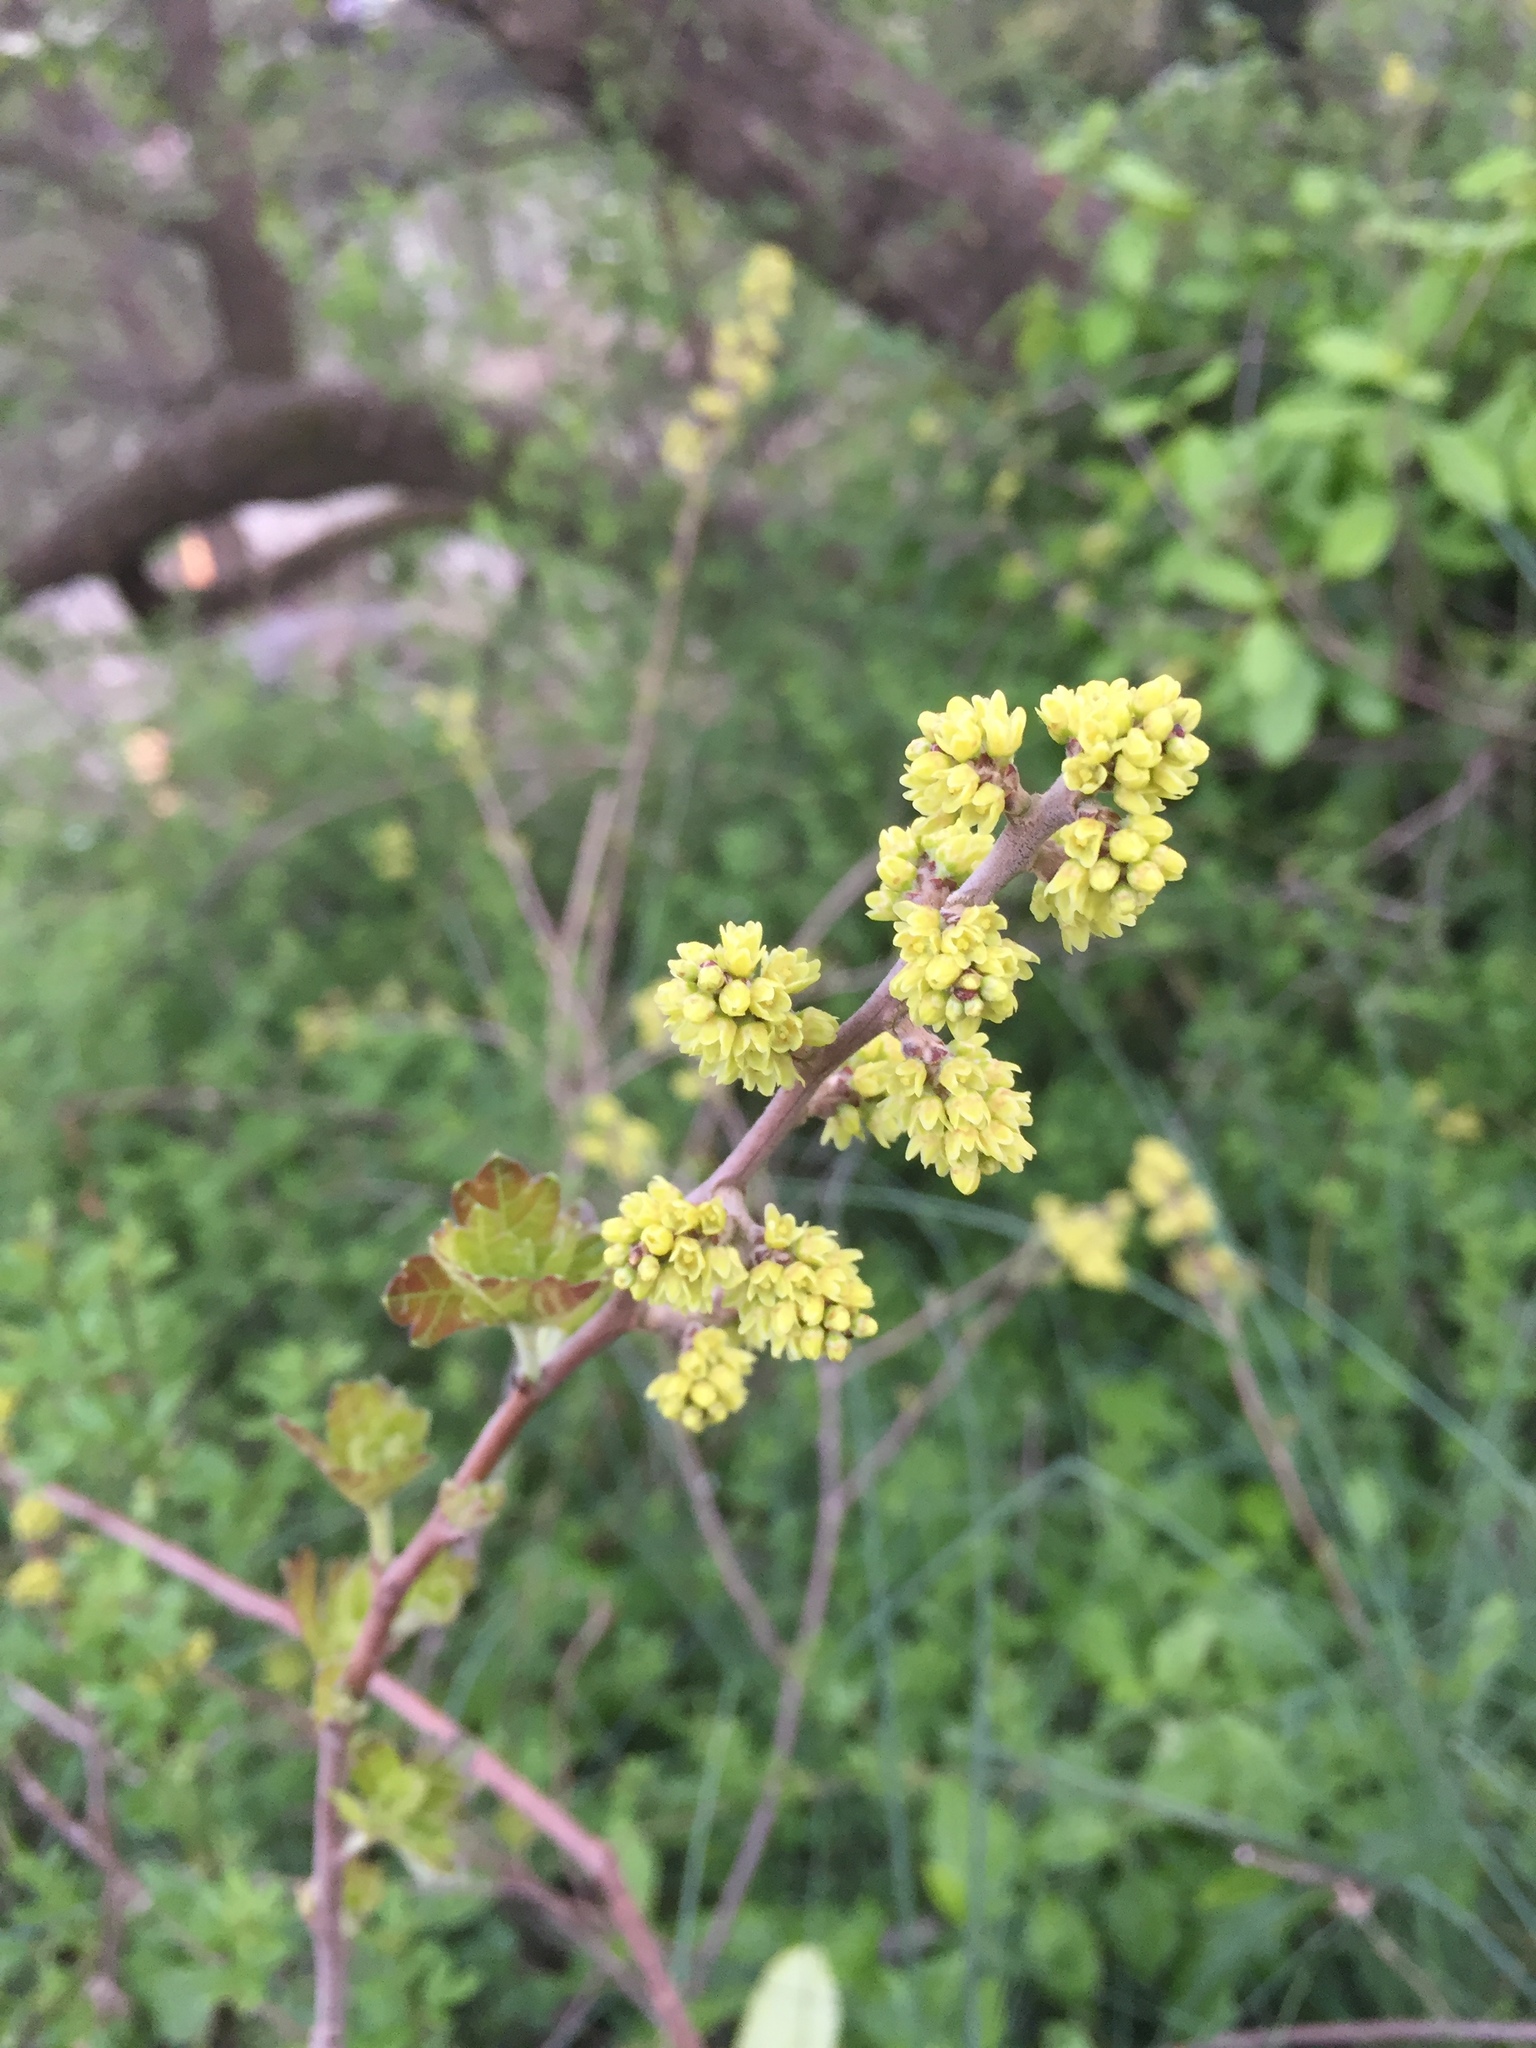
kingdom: Plantae
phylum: Tracheophyta
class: Magnoliopsida
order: Sapindales
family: Anacardiaceae
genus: Rhus
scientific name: Rhus aromatica
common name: Aromatic sumac
